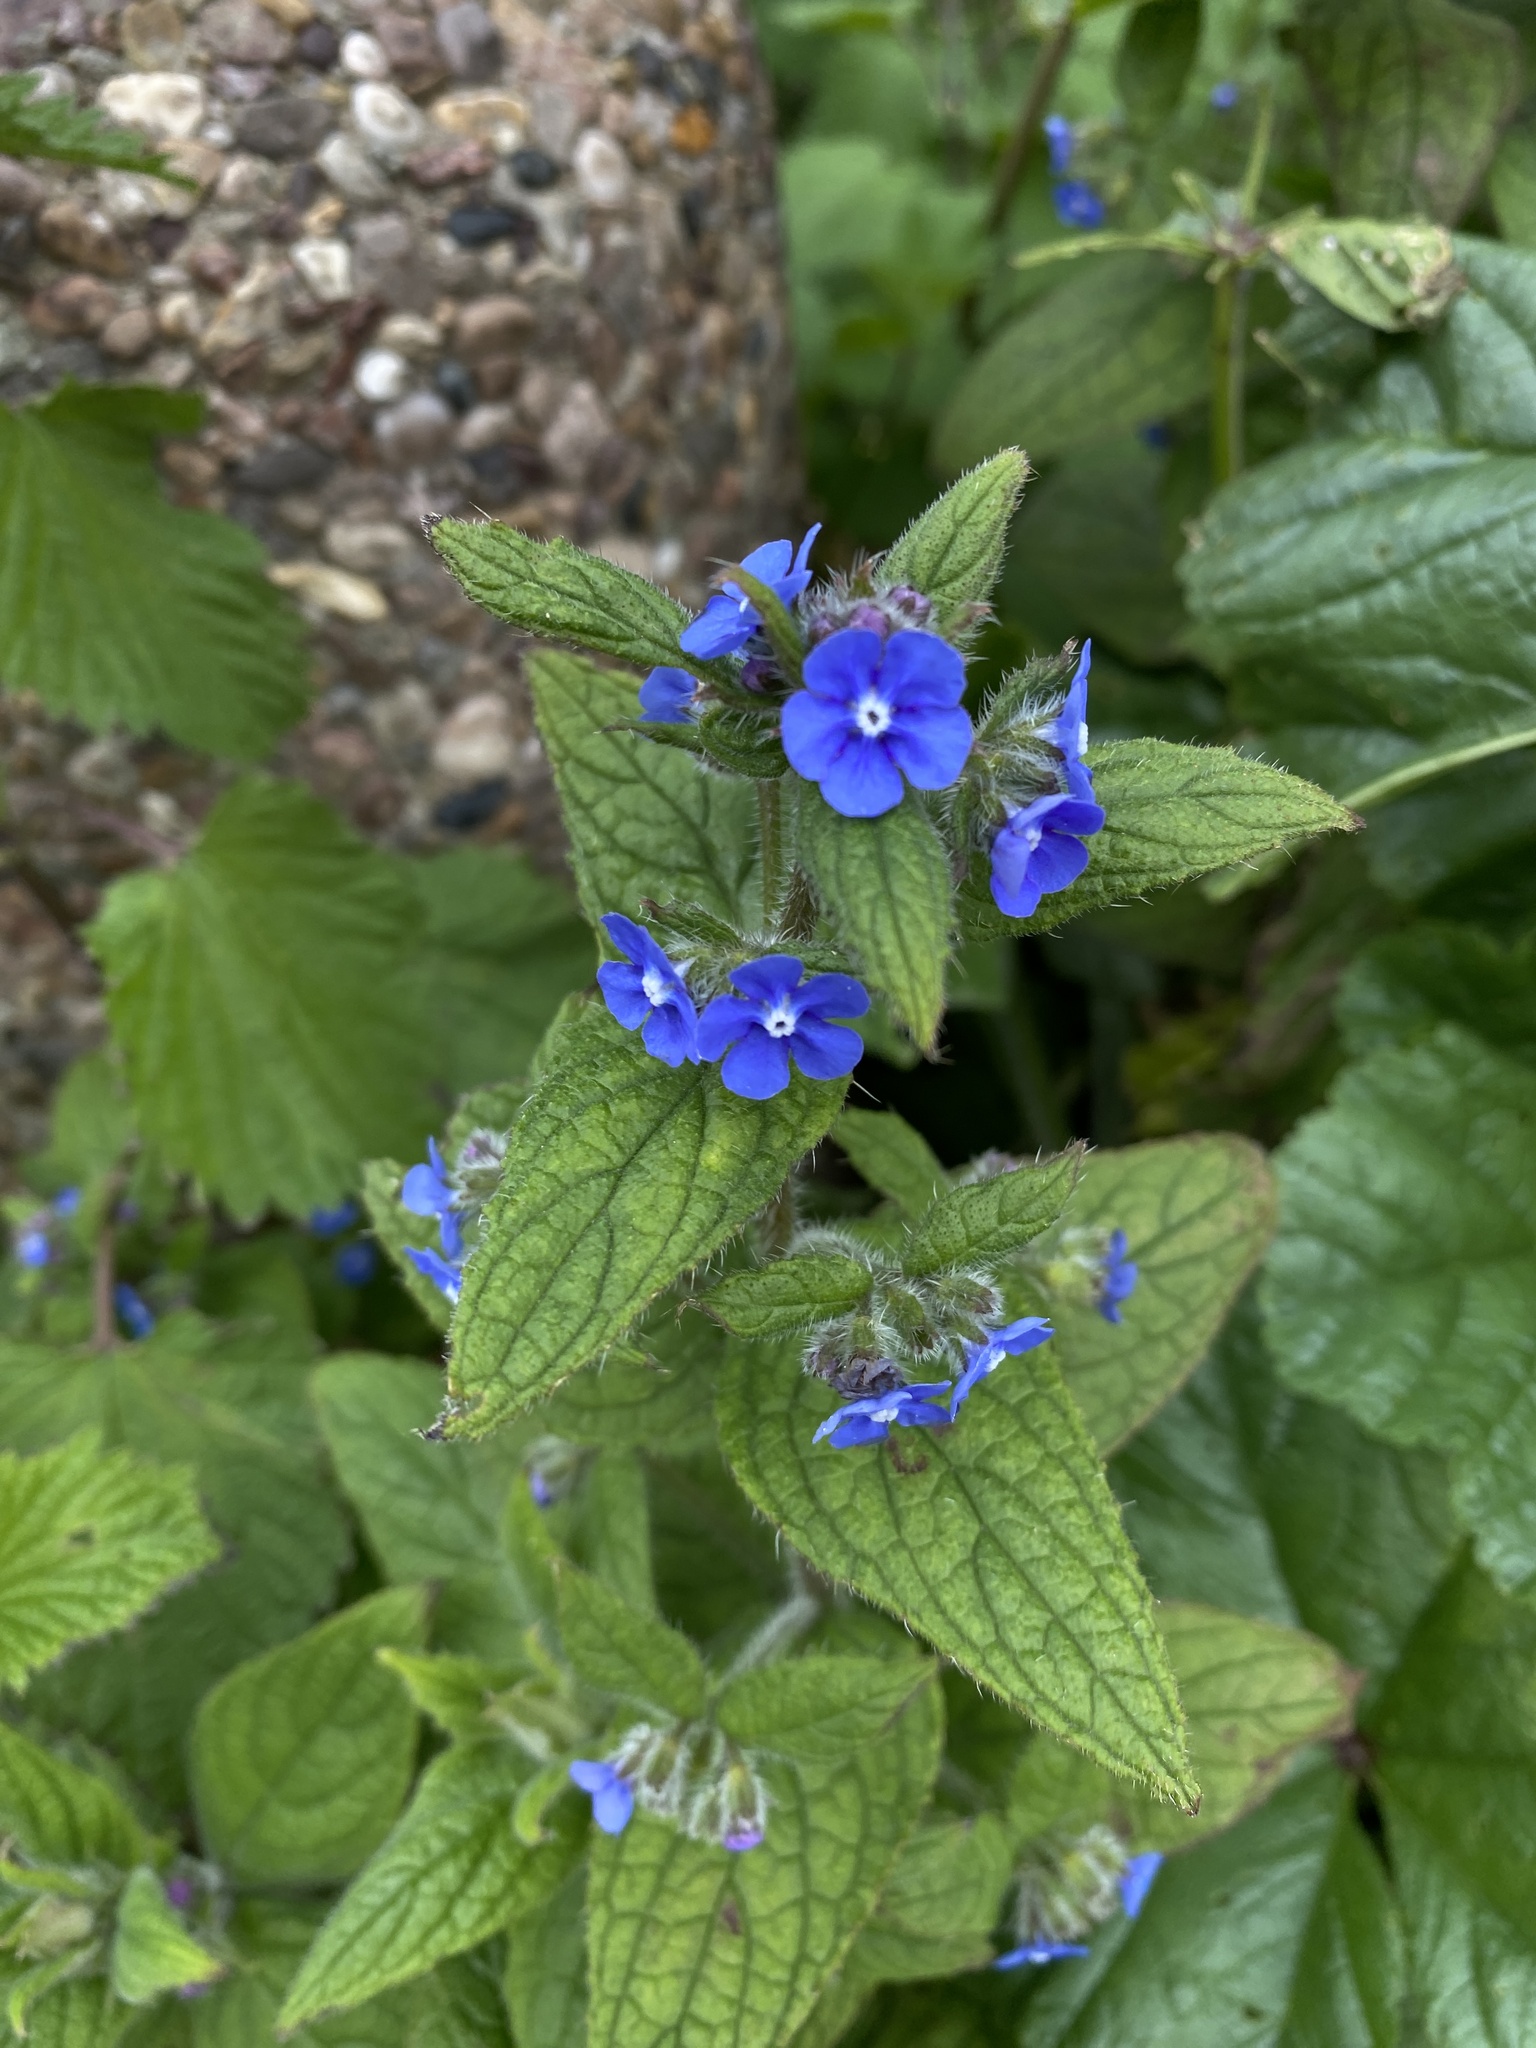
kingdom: Plantae
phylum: Tracheophyta
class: Magnoliopsida
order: Boraginales
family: Boraginaceae
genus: Pentaglottis
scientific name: Pentaglottis sempervirens
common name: Green alkanet
